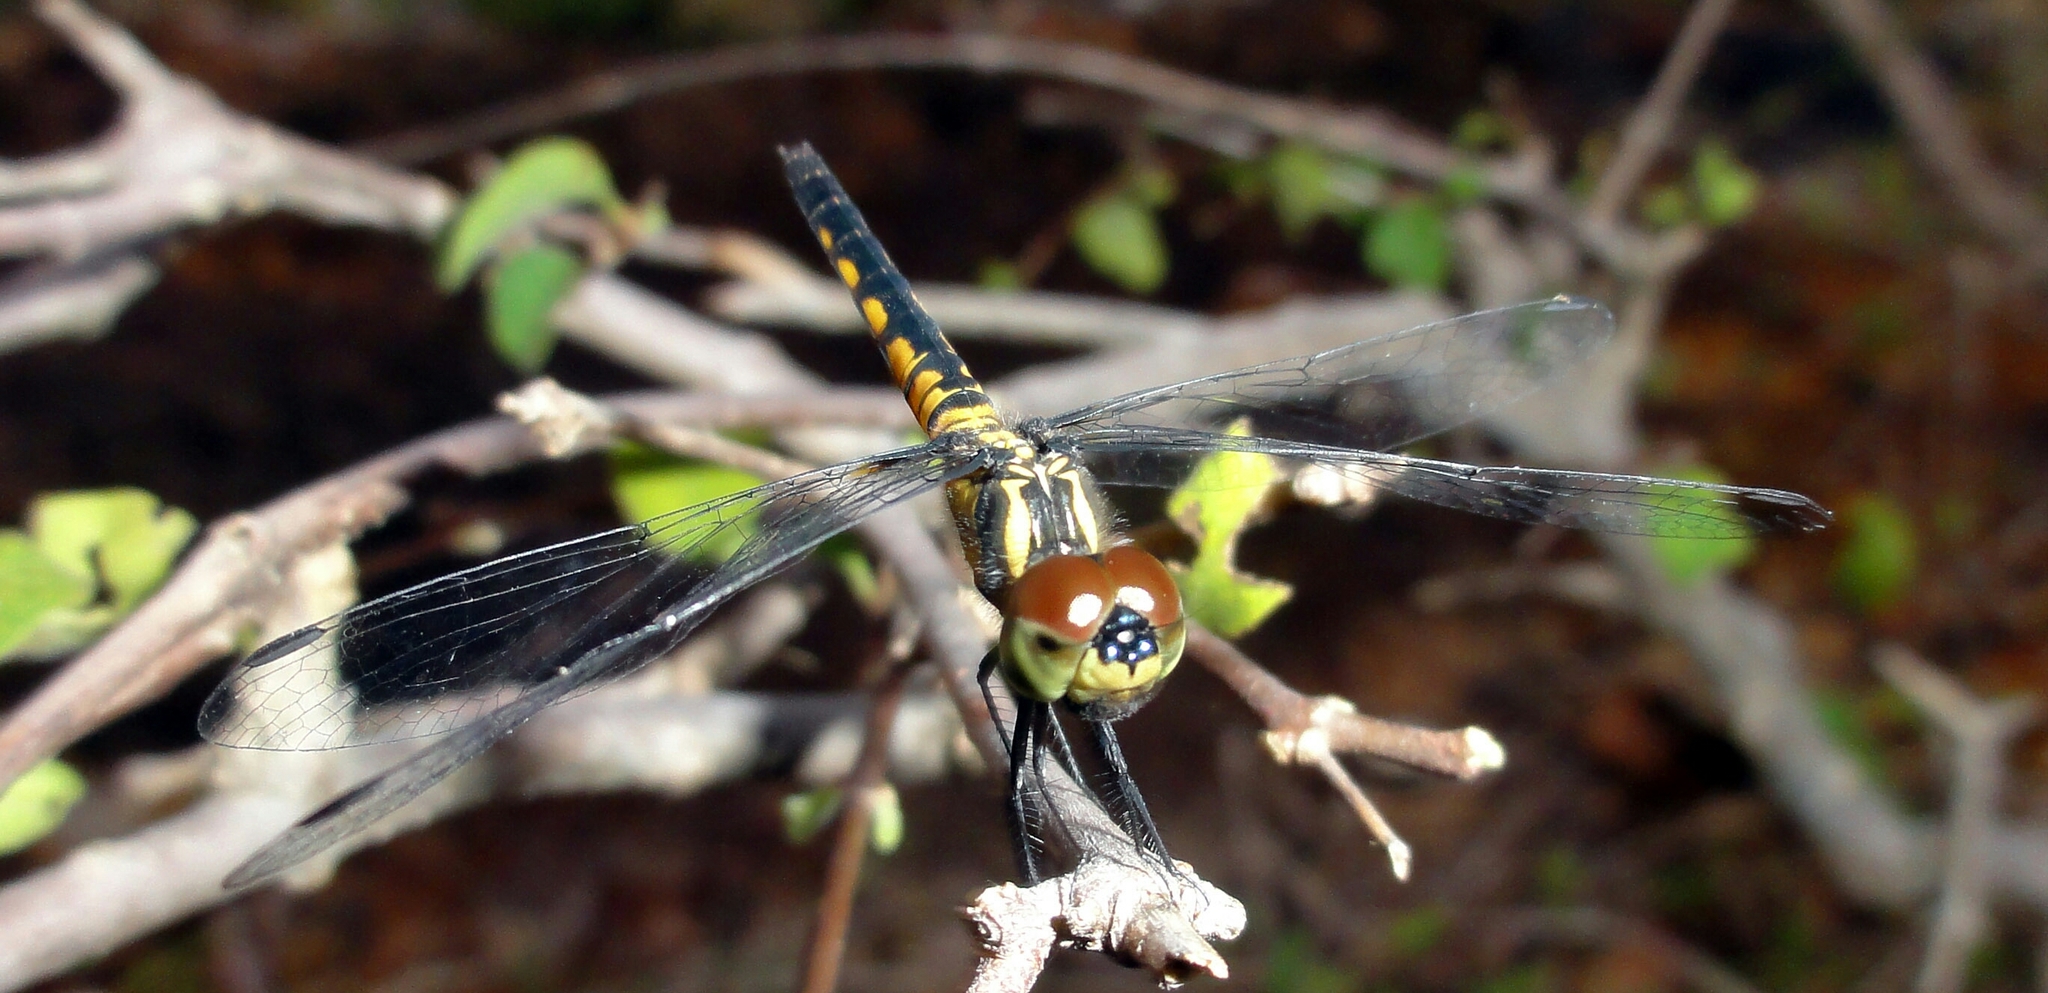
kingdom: Animalia
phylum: Arthropoda
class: Insecta
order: Odonata
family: Libellulidae
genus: Aethriamanta
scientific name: Aethriamanta aethra
